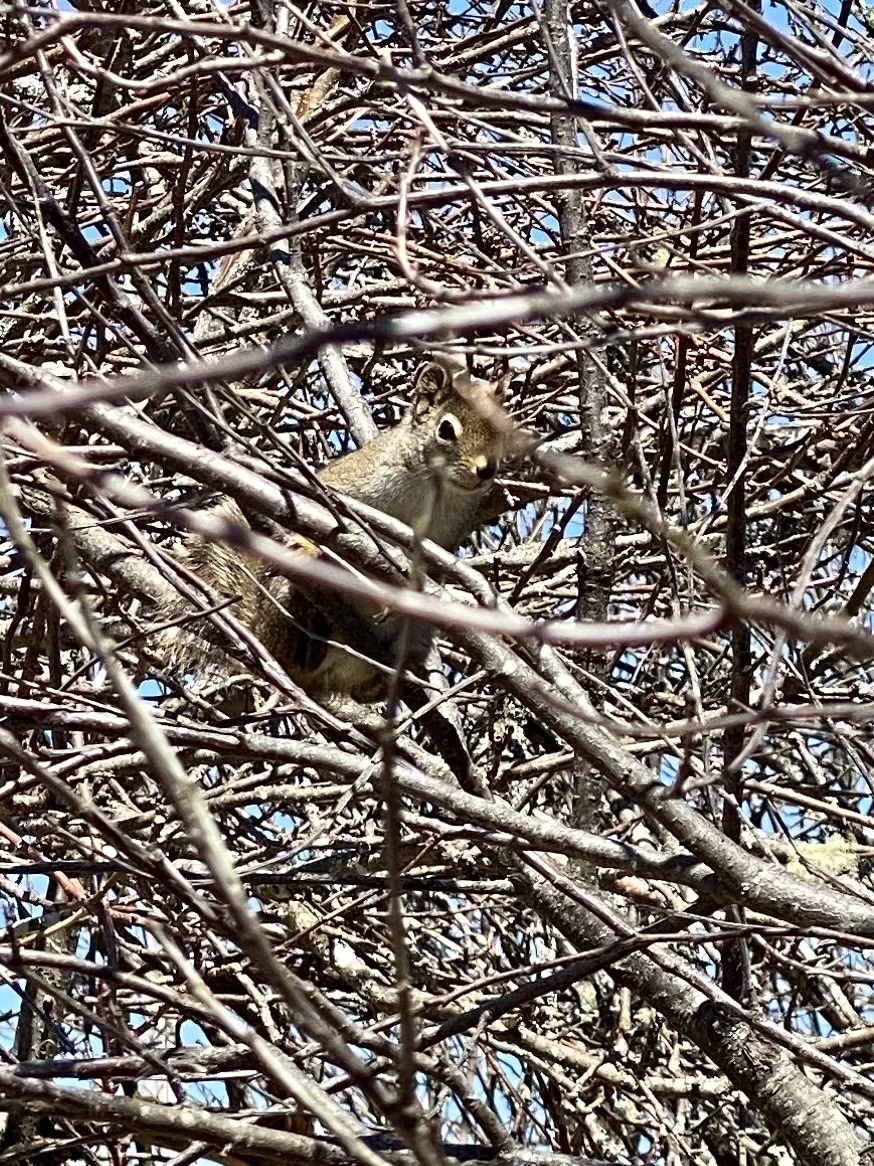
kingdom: Animalia
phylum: Chordata
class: Mammalia
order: Rodentia
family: Sciuridae
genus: Tamiasciurus
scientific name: Tamiasciurus hudsonicus
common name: Red squirrel
